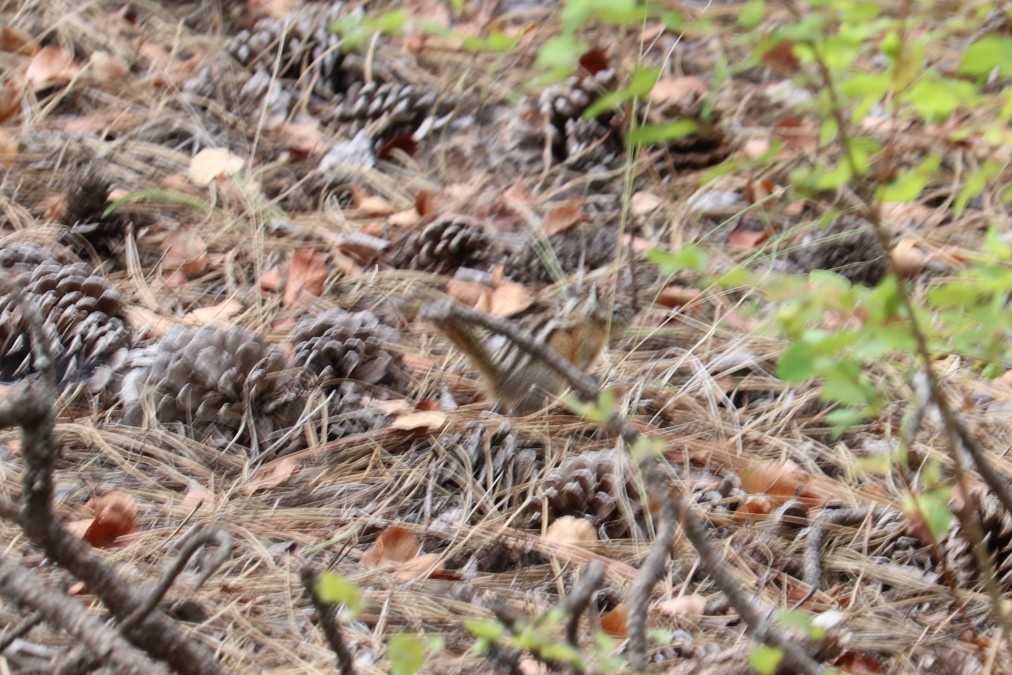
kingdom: Animalia
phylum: Chordata
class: Mammalia
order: Rodentia
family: Sciuridae
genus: Tamias
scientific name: Tamias amoenus
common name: Yellow-pine chipmunk
